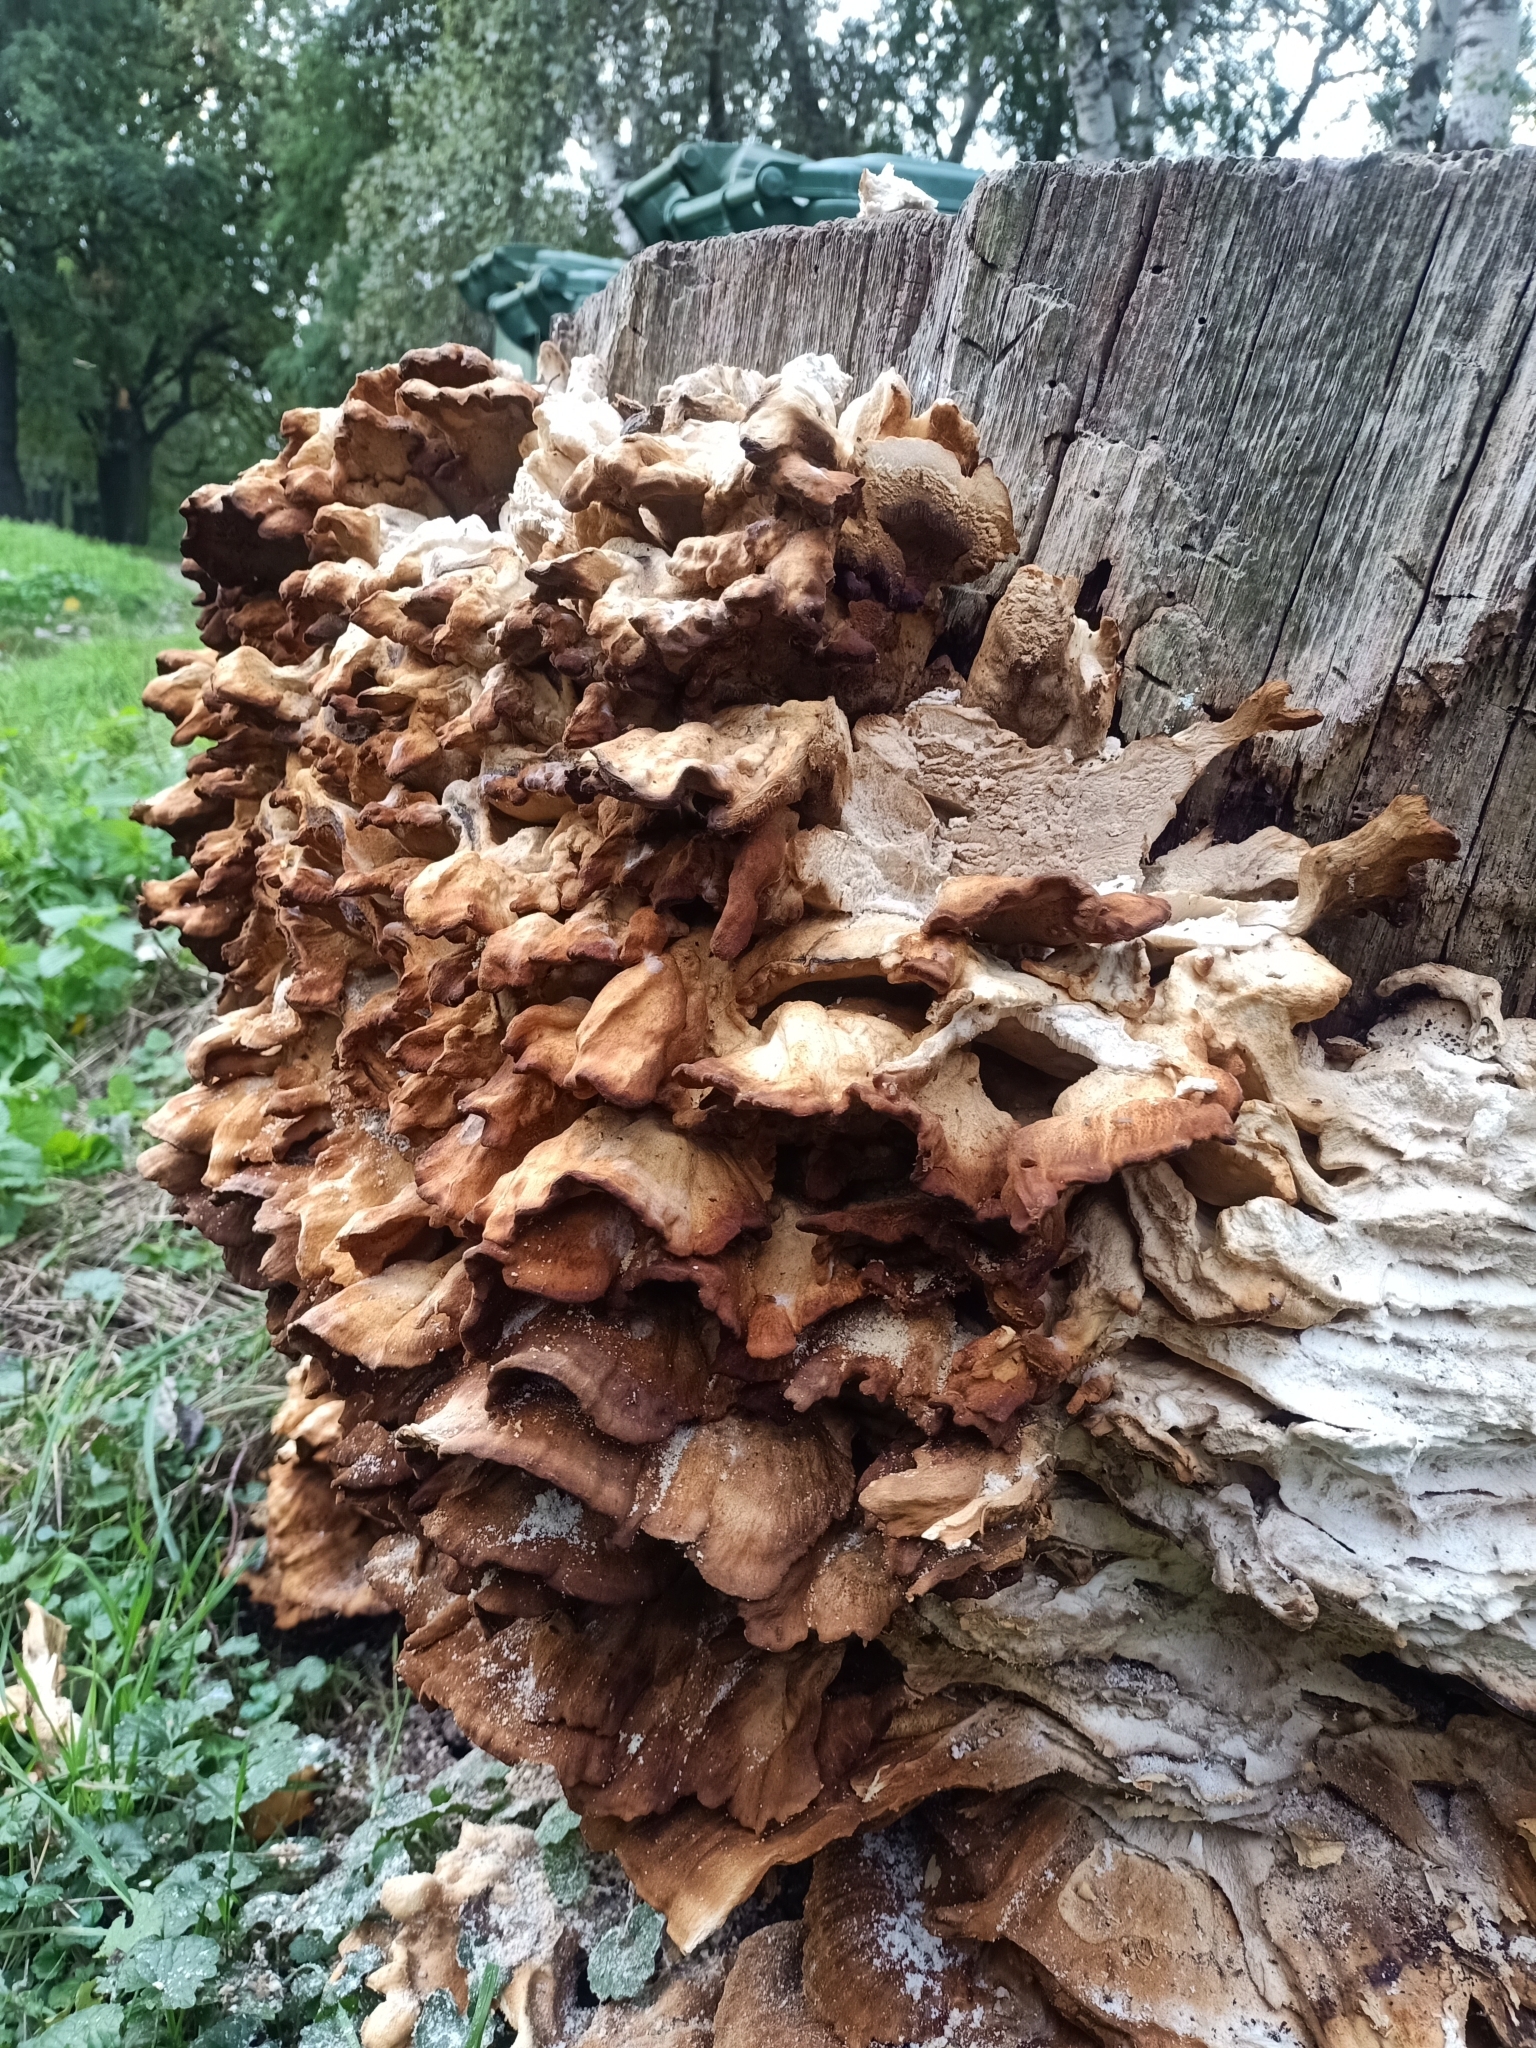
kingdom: Fungi
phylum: Basidiomycota
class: Agaricomycetes
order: Polyporales
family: Laetiporaceae
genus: Laetiporus
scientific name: Laetiporus sulphureus
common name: Chicken of the woods
